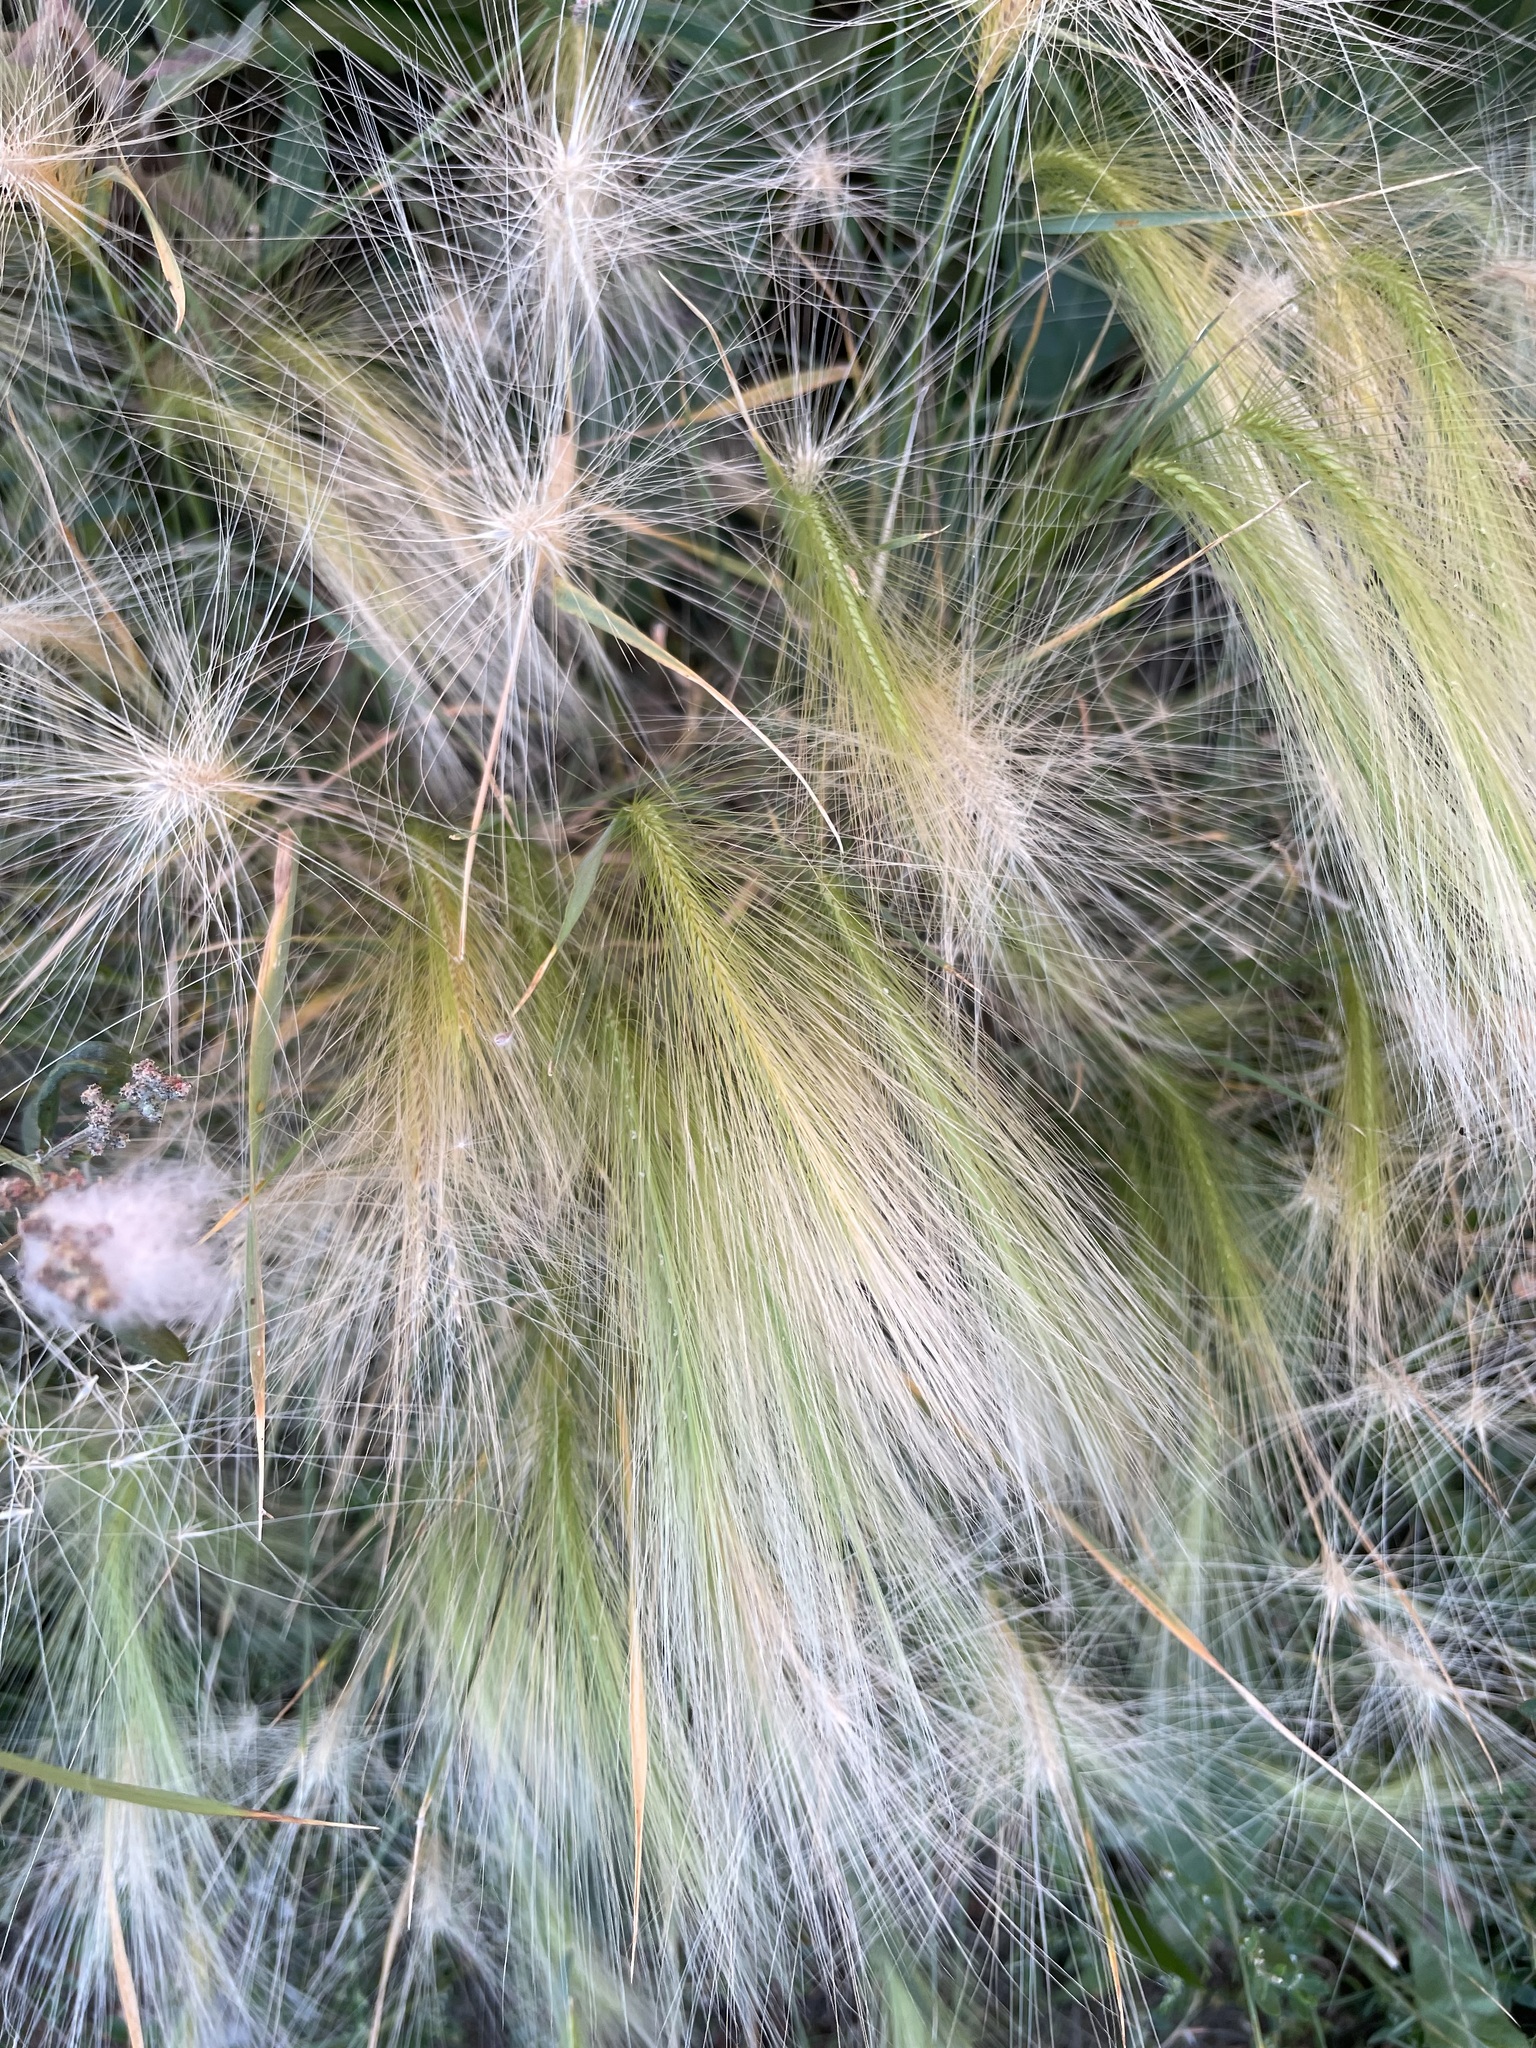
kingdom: Plantae
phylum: Tracheophyta
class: Liliopsida
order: Poales
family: Poaceae
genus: Hordeum
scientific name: Hordeum jubatum
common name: Foxtail barley
